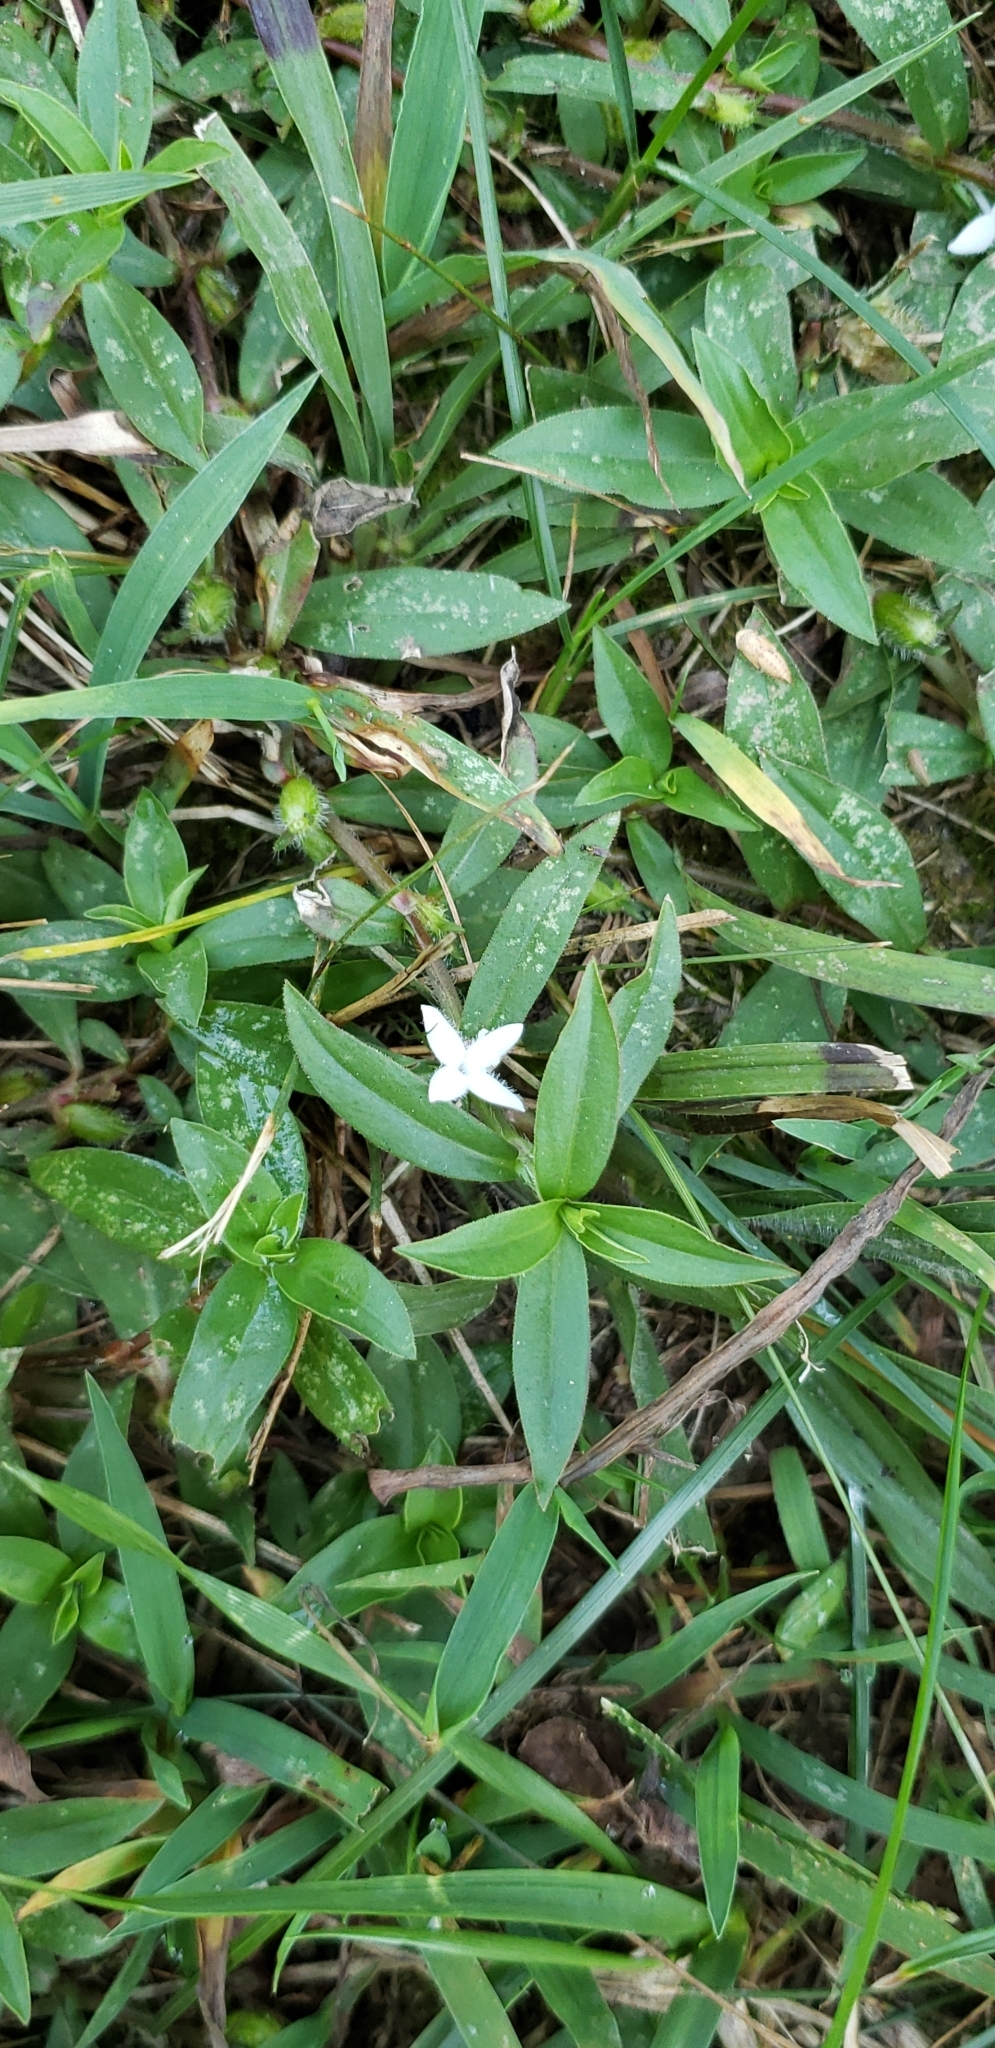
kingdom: Plantae
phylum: Tracheophyta
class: Magnoliopsida
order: Gentianales
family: Rubiaceae
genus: Diodia
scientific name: Diodia virginiana
